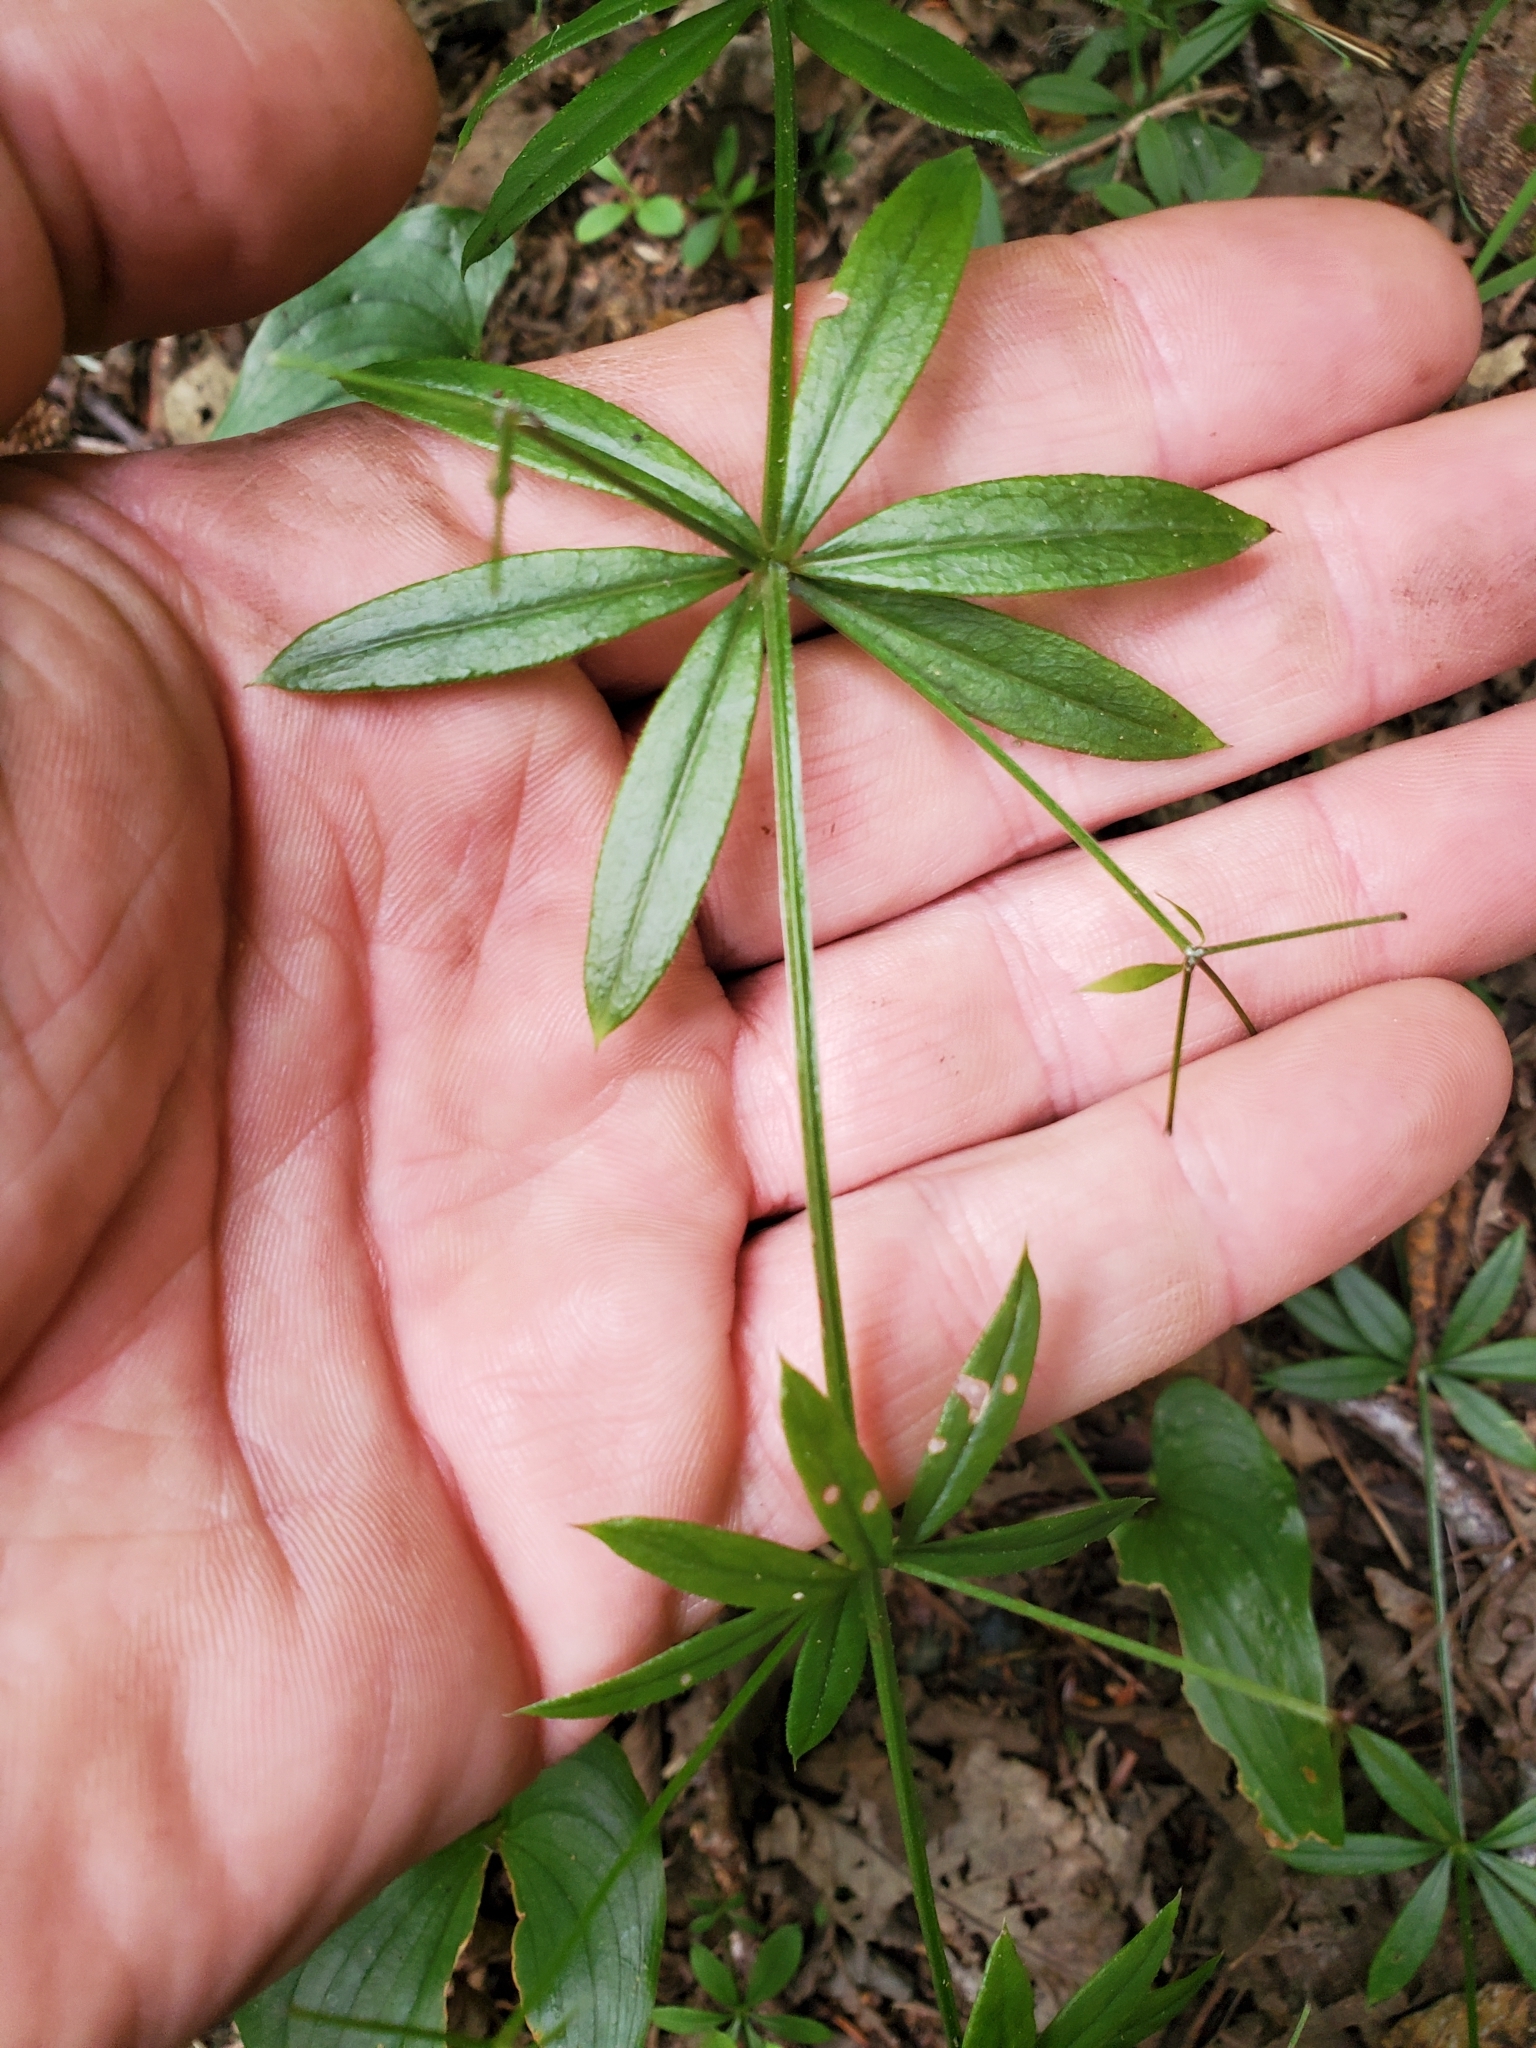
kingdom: Plantae
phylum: Tracheophyta
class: Magnoliopsida
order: Gentianales
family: Rubiaceae
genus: Galium
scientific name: Galium triflorum
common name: Fragrant bedstraw
